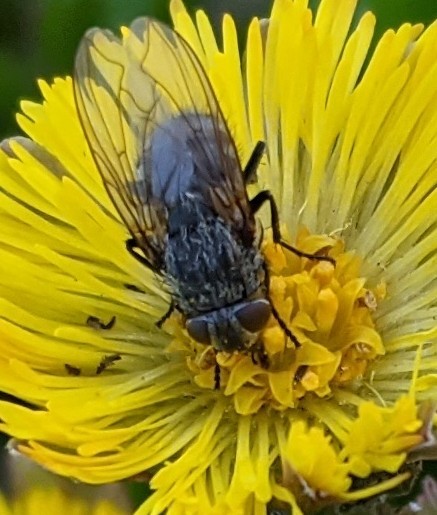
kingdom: Animalia
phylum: Arthropoda
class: Insecta
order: Diptera
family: Polleniidae
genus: Pollenia
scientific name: Pollenia
